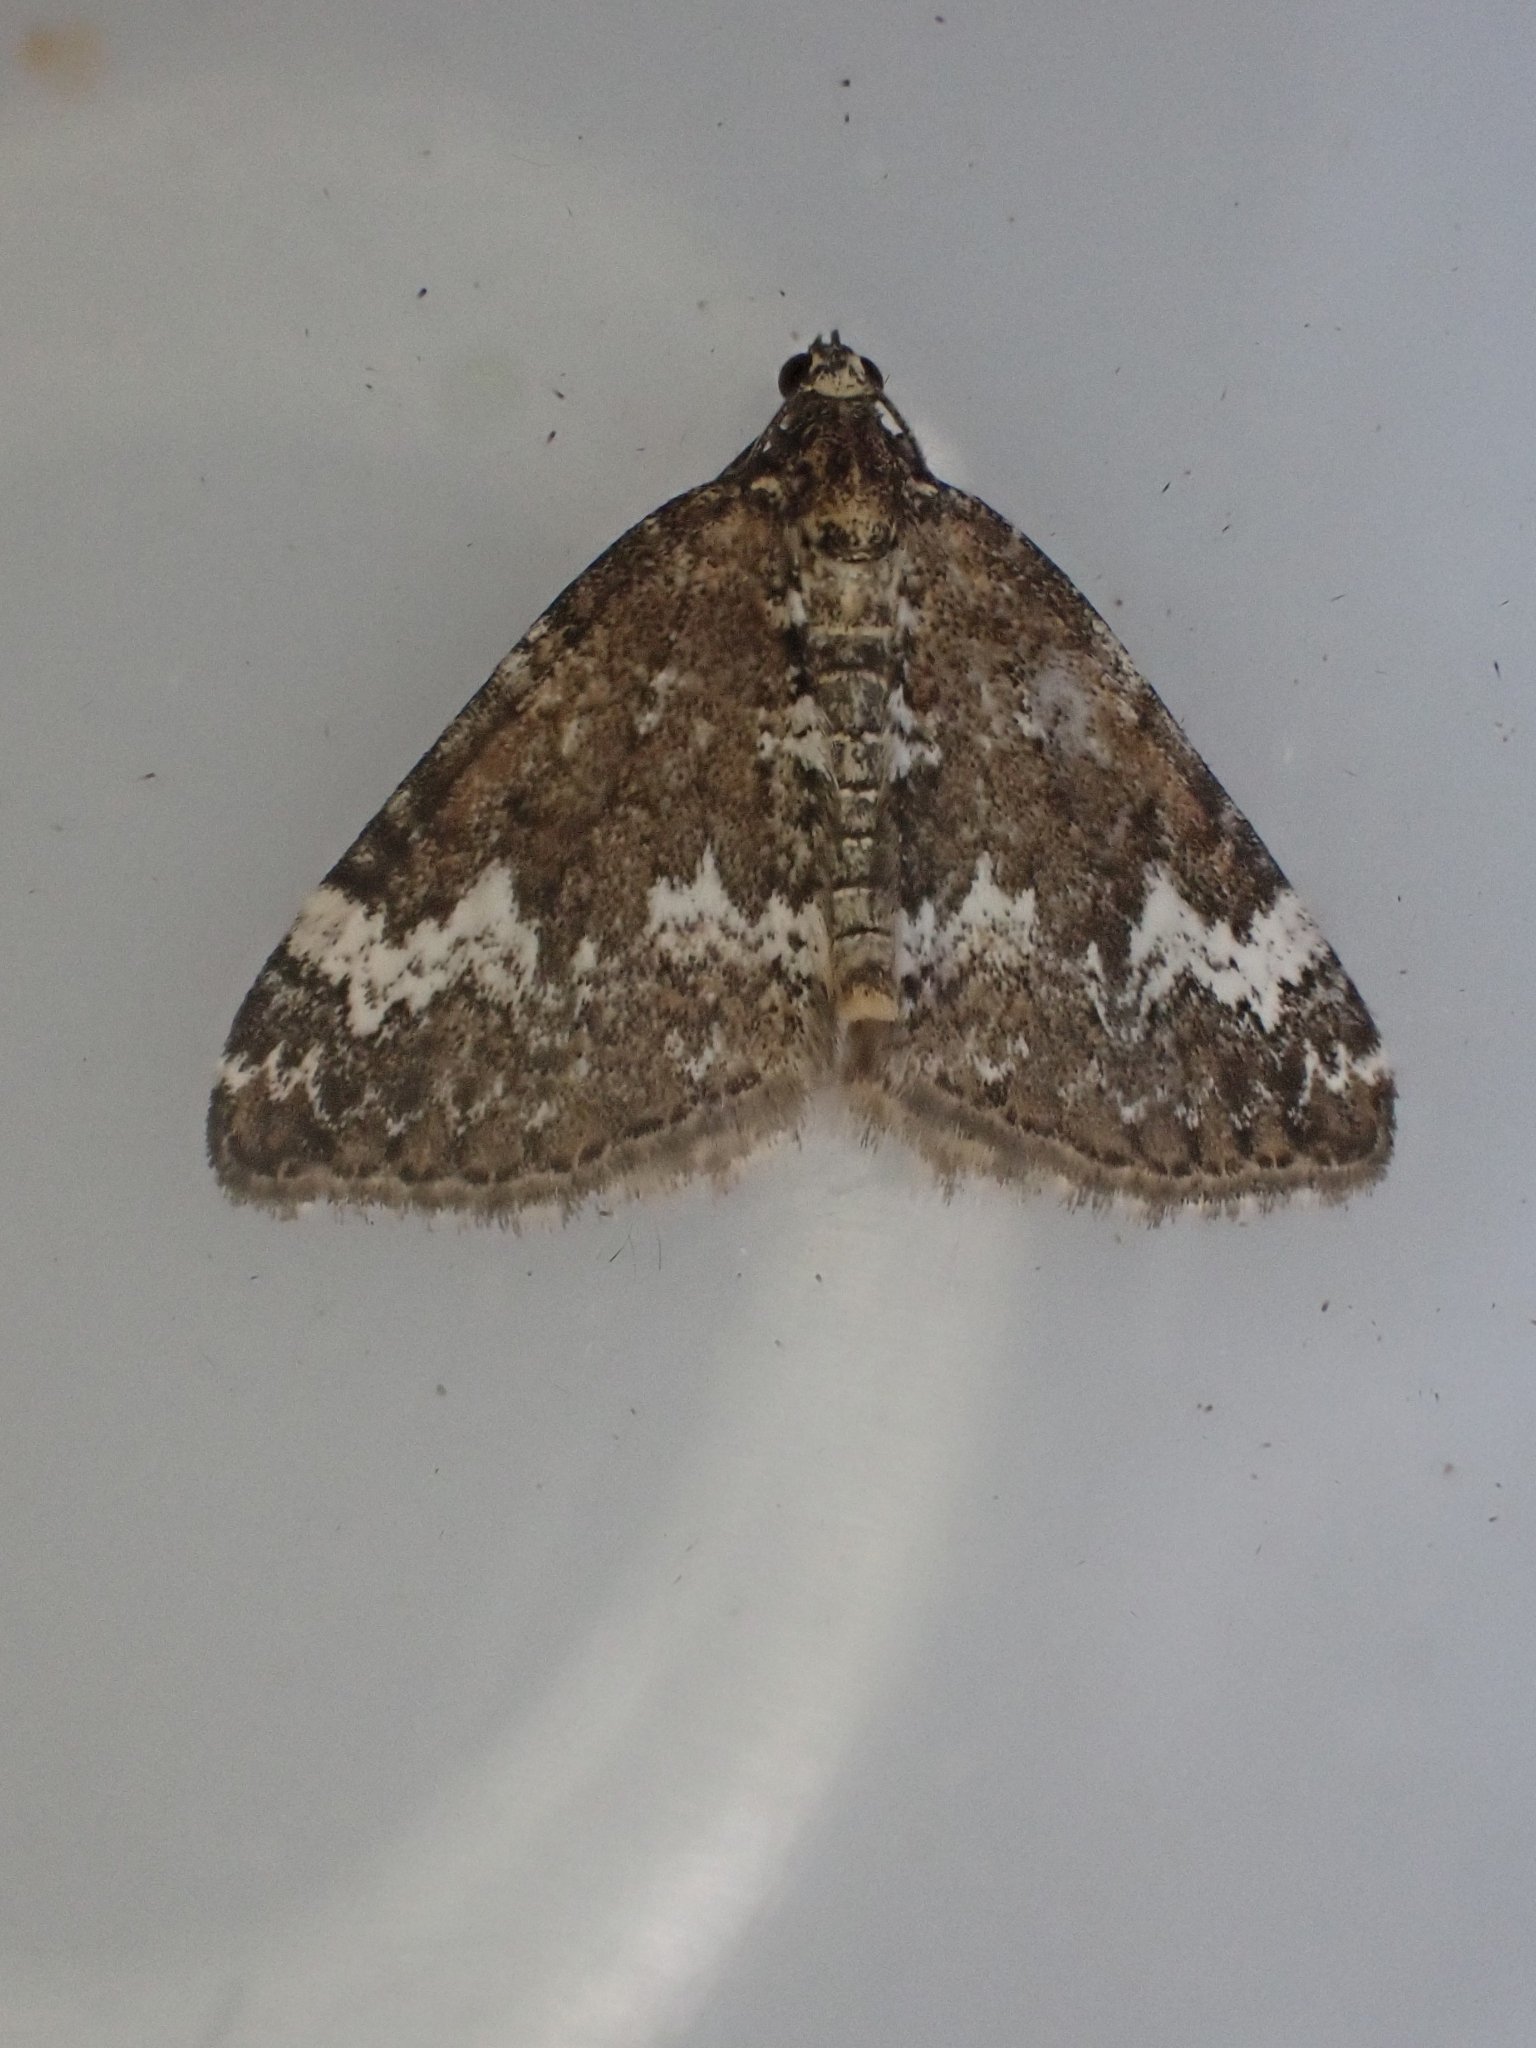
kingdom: Animalia
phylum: Arthropoda
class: Insecta
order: Lepidoptera
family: Geometridae
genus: Perizoma
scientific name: Perizoma alchemillata
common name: Small rivulet
